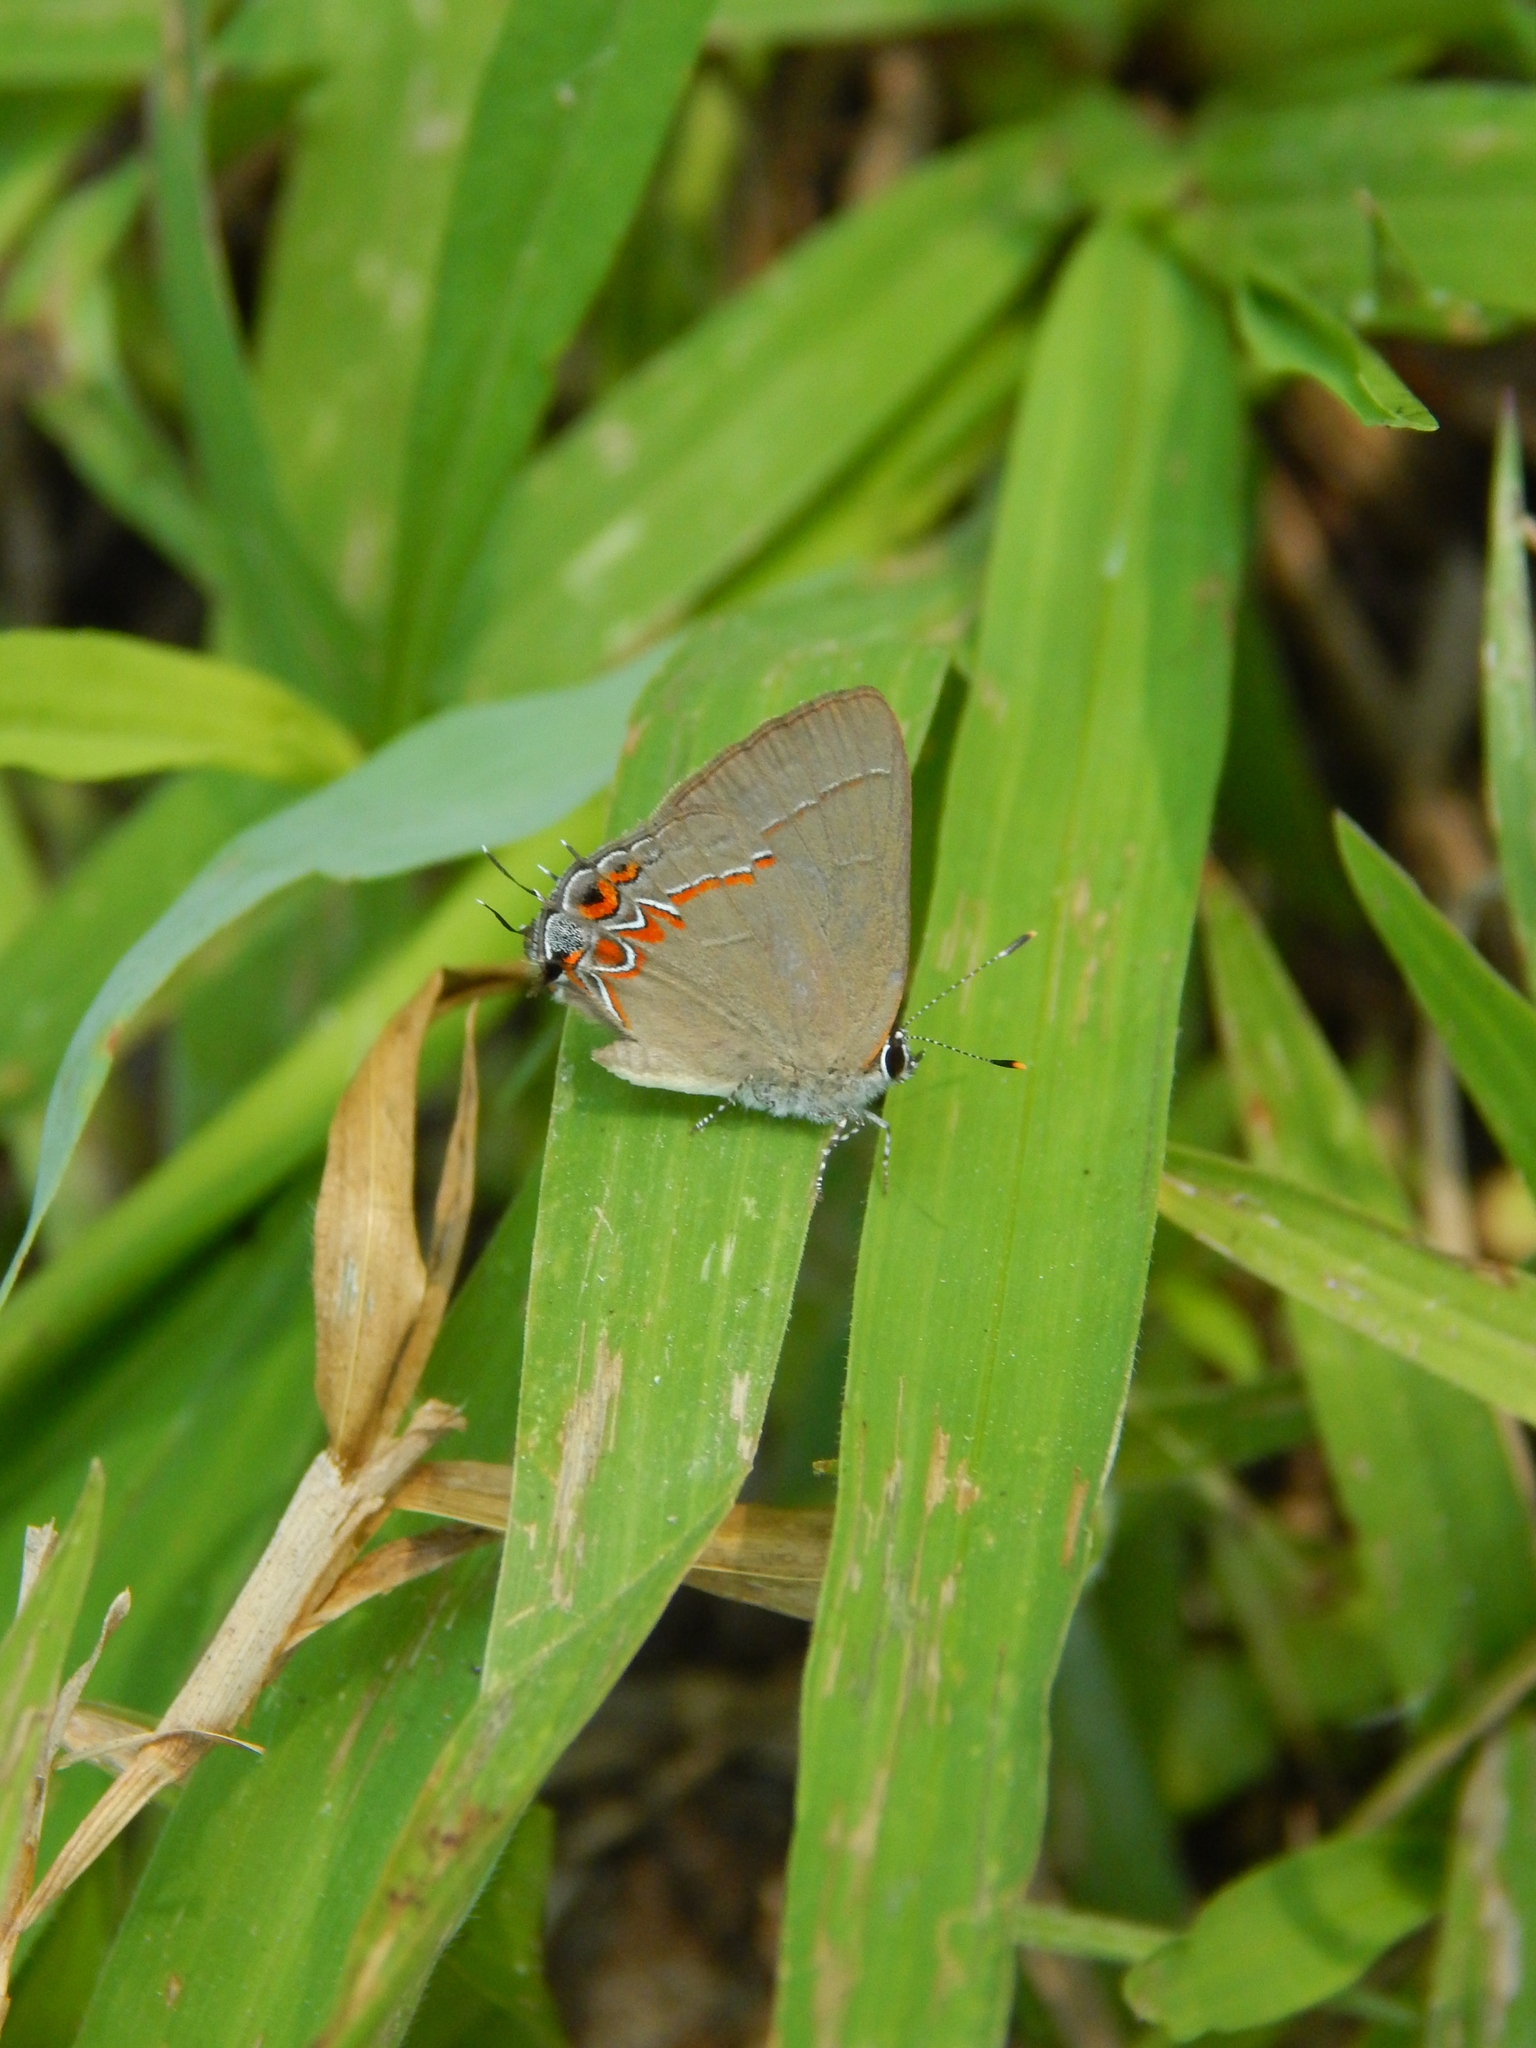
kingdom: Animalia
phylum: Arthropoda
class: Insecta
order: Lepidoptera
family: Lycaenidae
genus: Calycopis
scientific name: Calycopis isobeon
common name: Dusky-blue groundstreak
